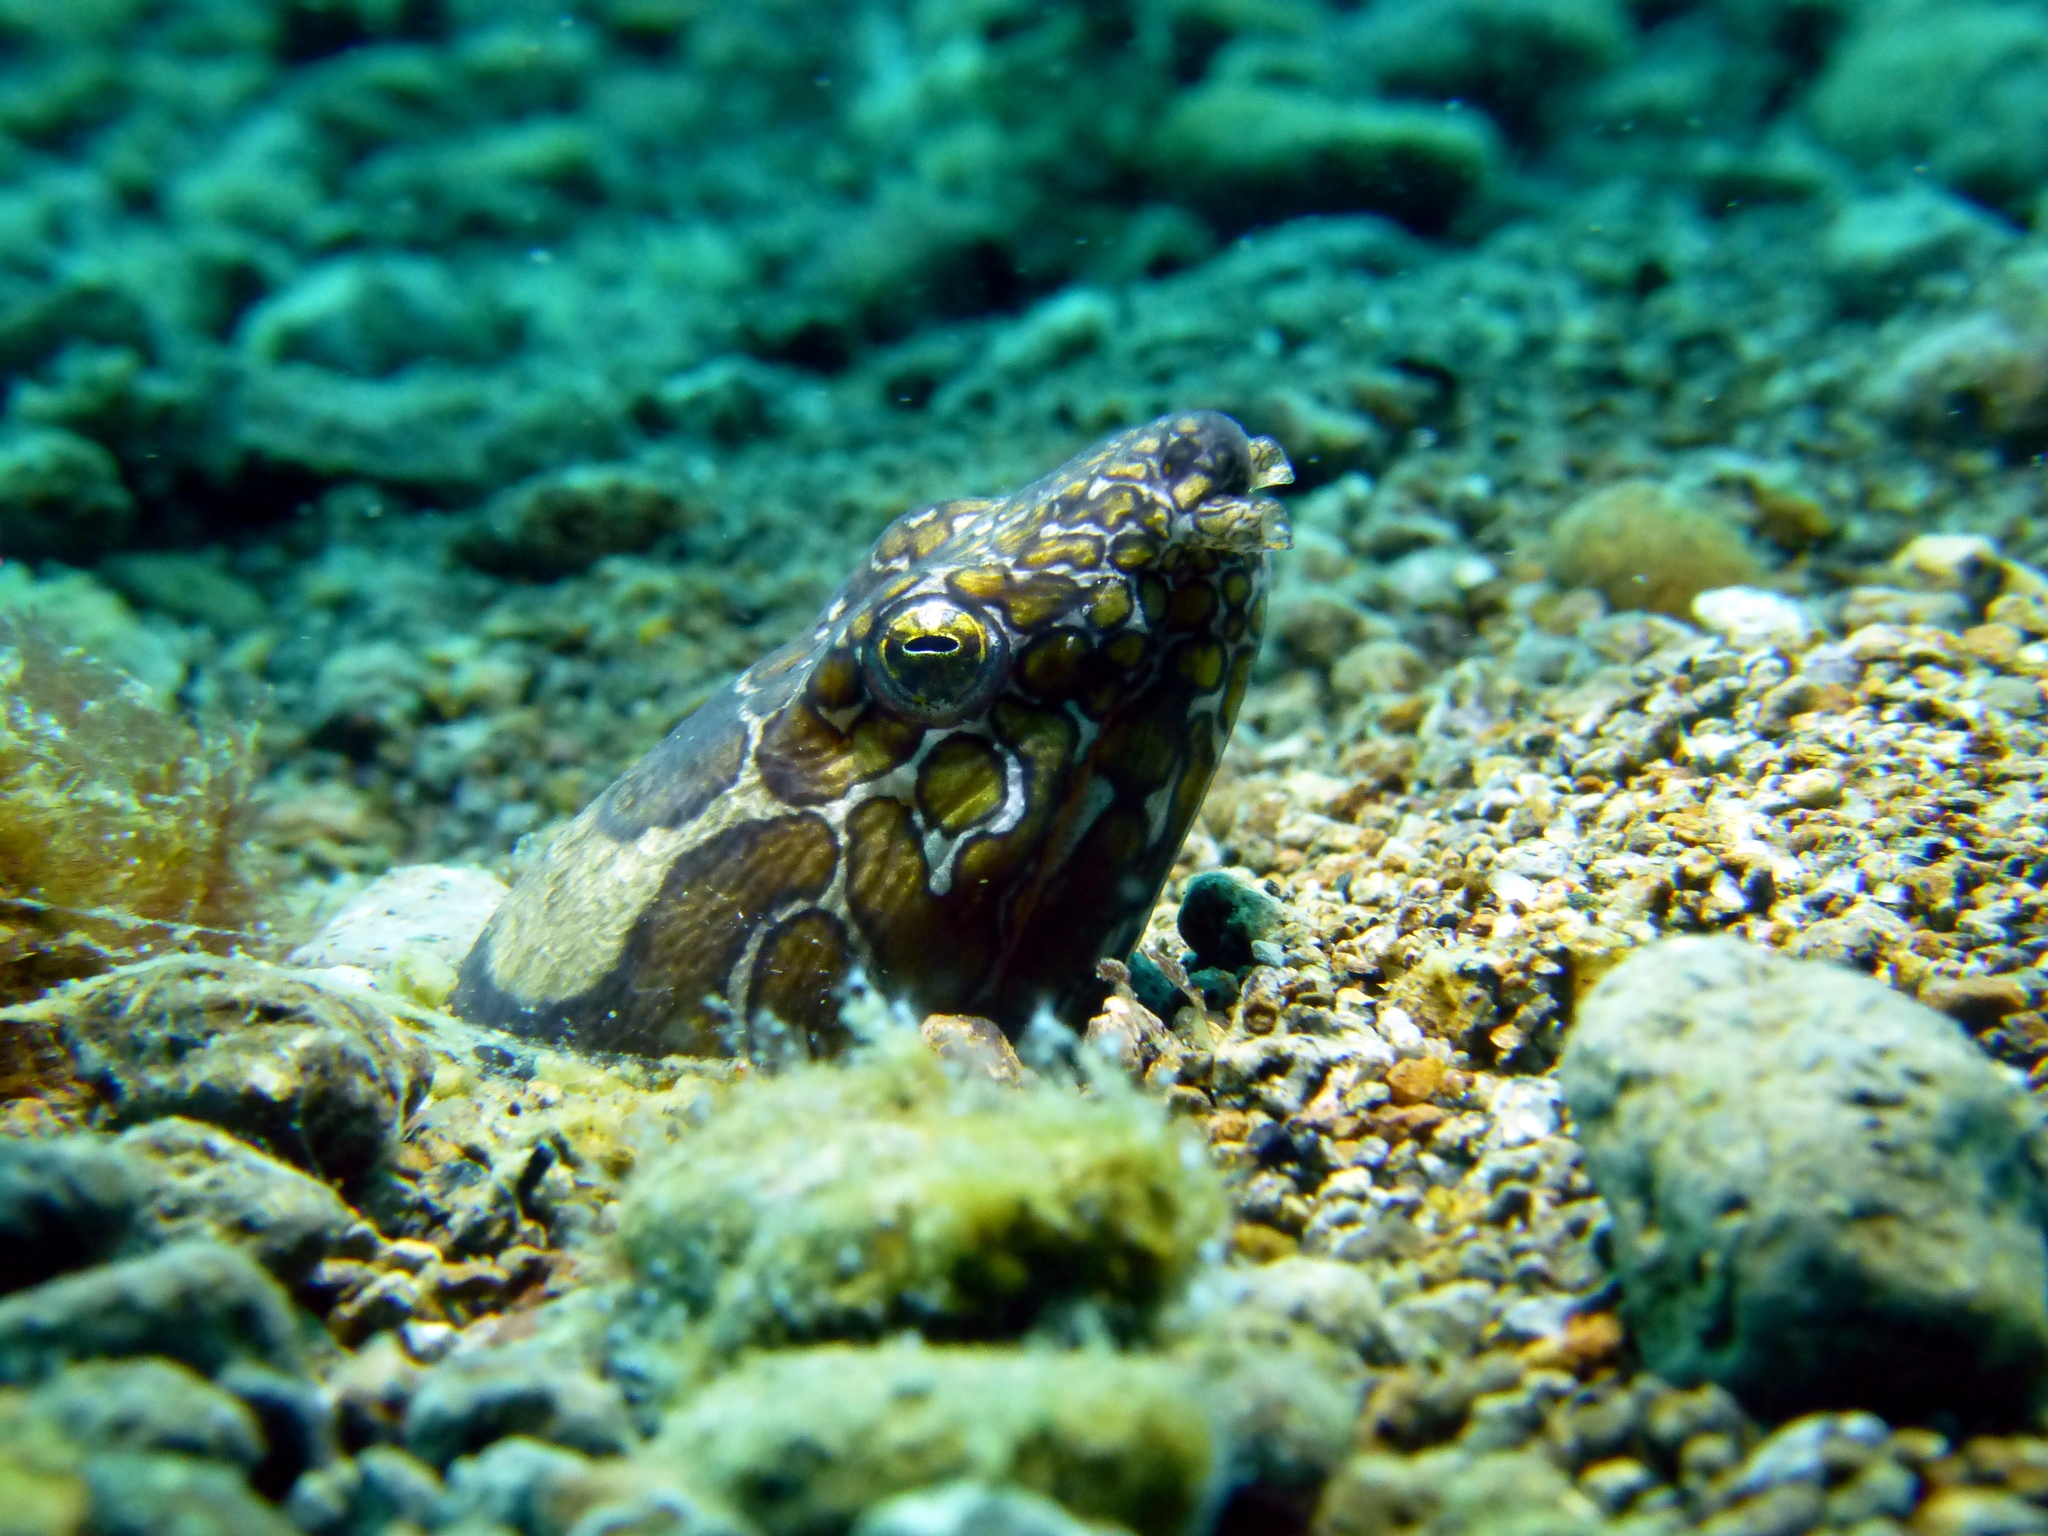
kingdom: Animalia
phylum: Chordata
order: Anguilliformes
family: Ophichthidae
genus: Ophichthus
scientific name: Ophichthus bonaparti
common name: Napoleon snake eel
